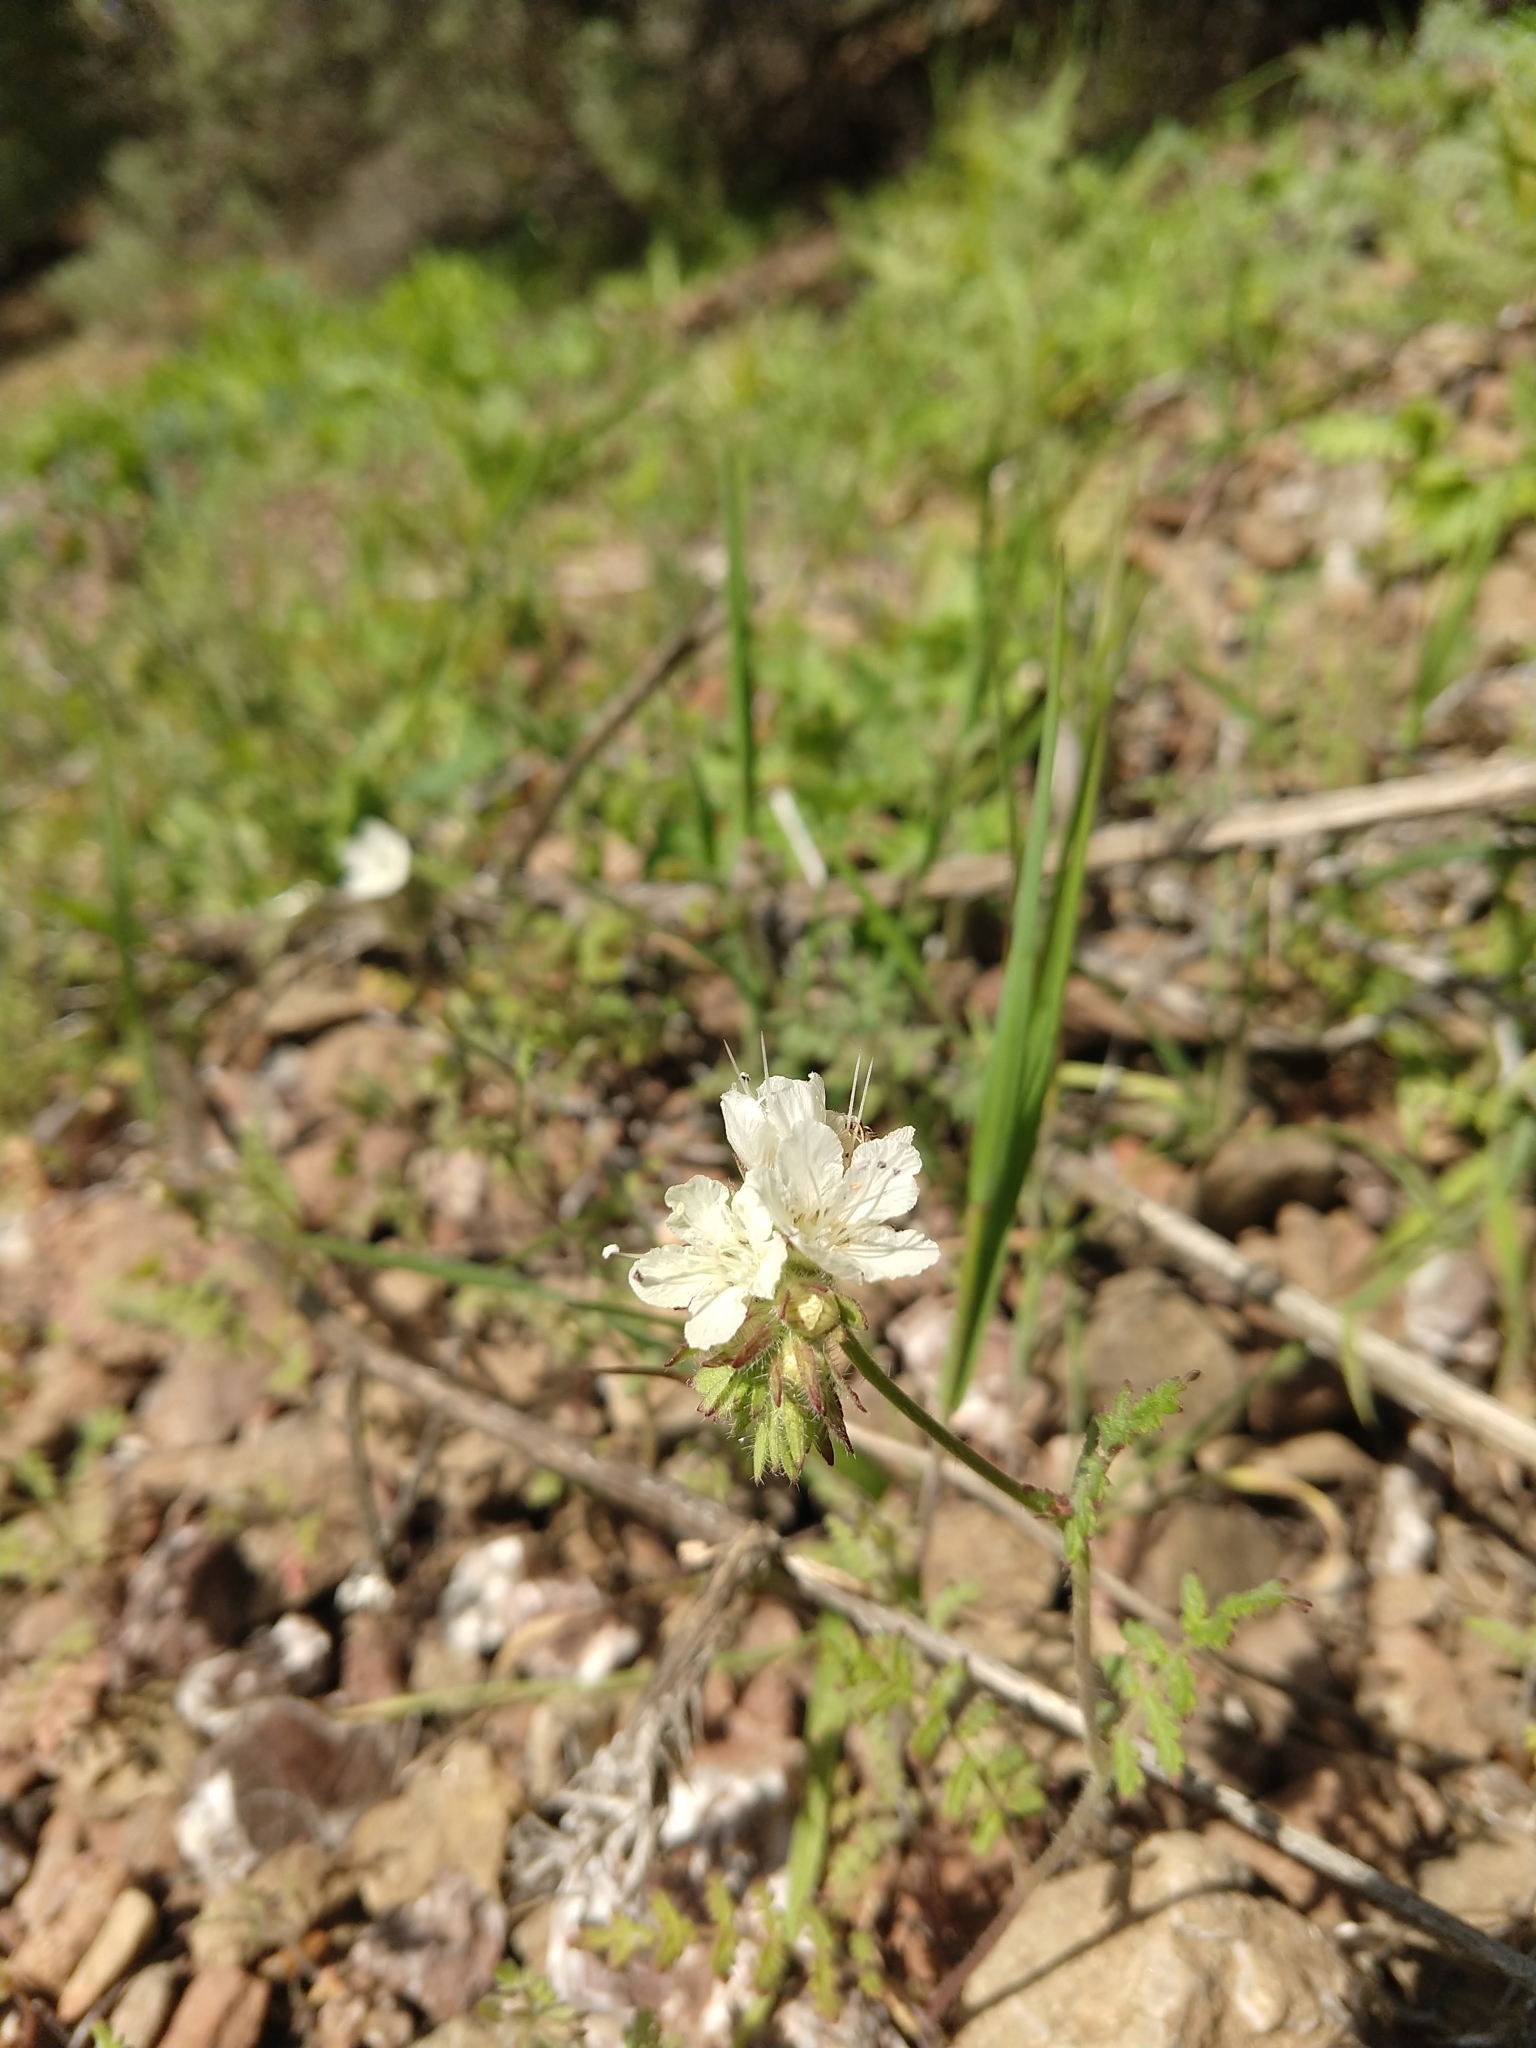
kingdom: Plantae
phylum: Tracheophyta
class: Magnoliopsida
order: Boraginales
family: Hydrophyllaceae
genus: Phacelia
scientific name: Phacelia distans
